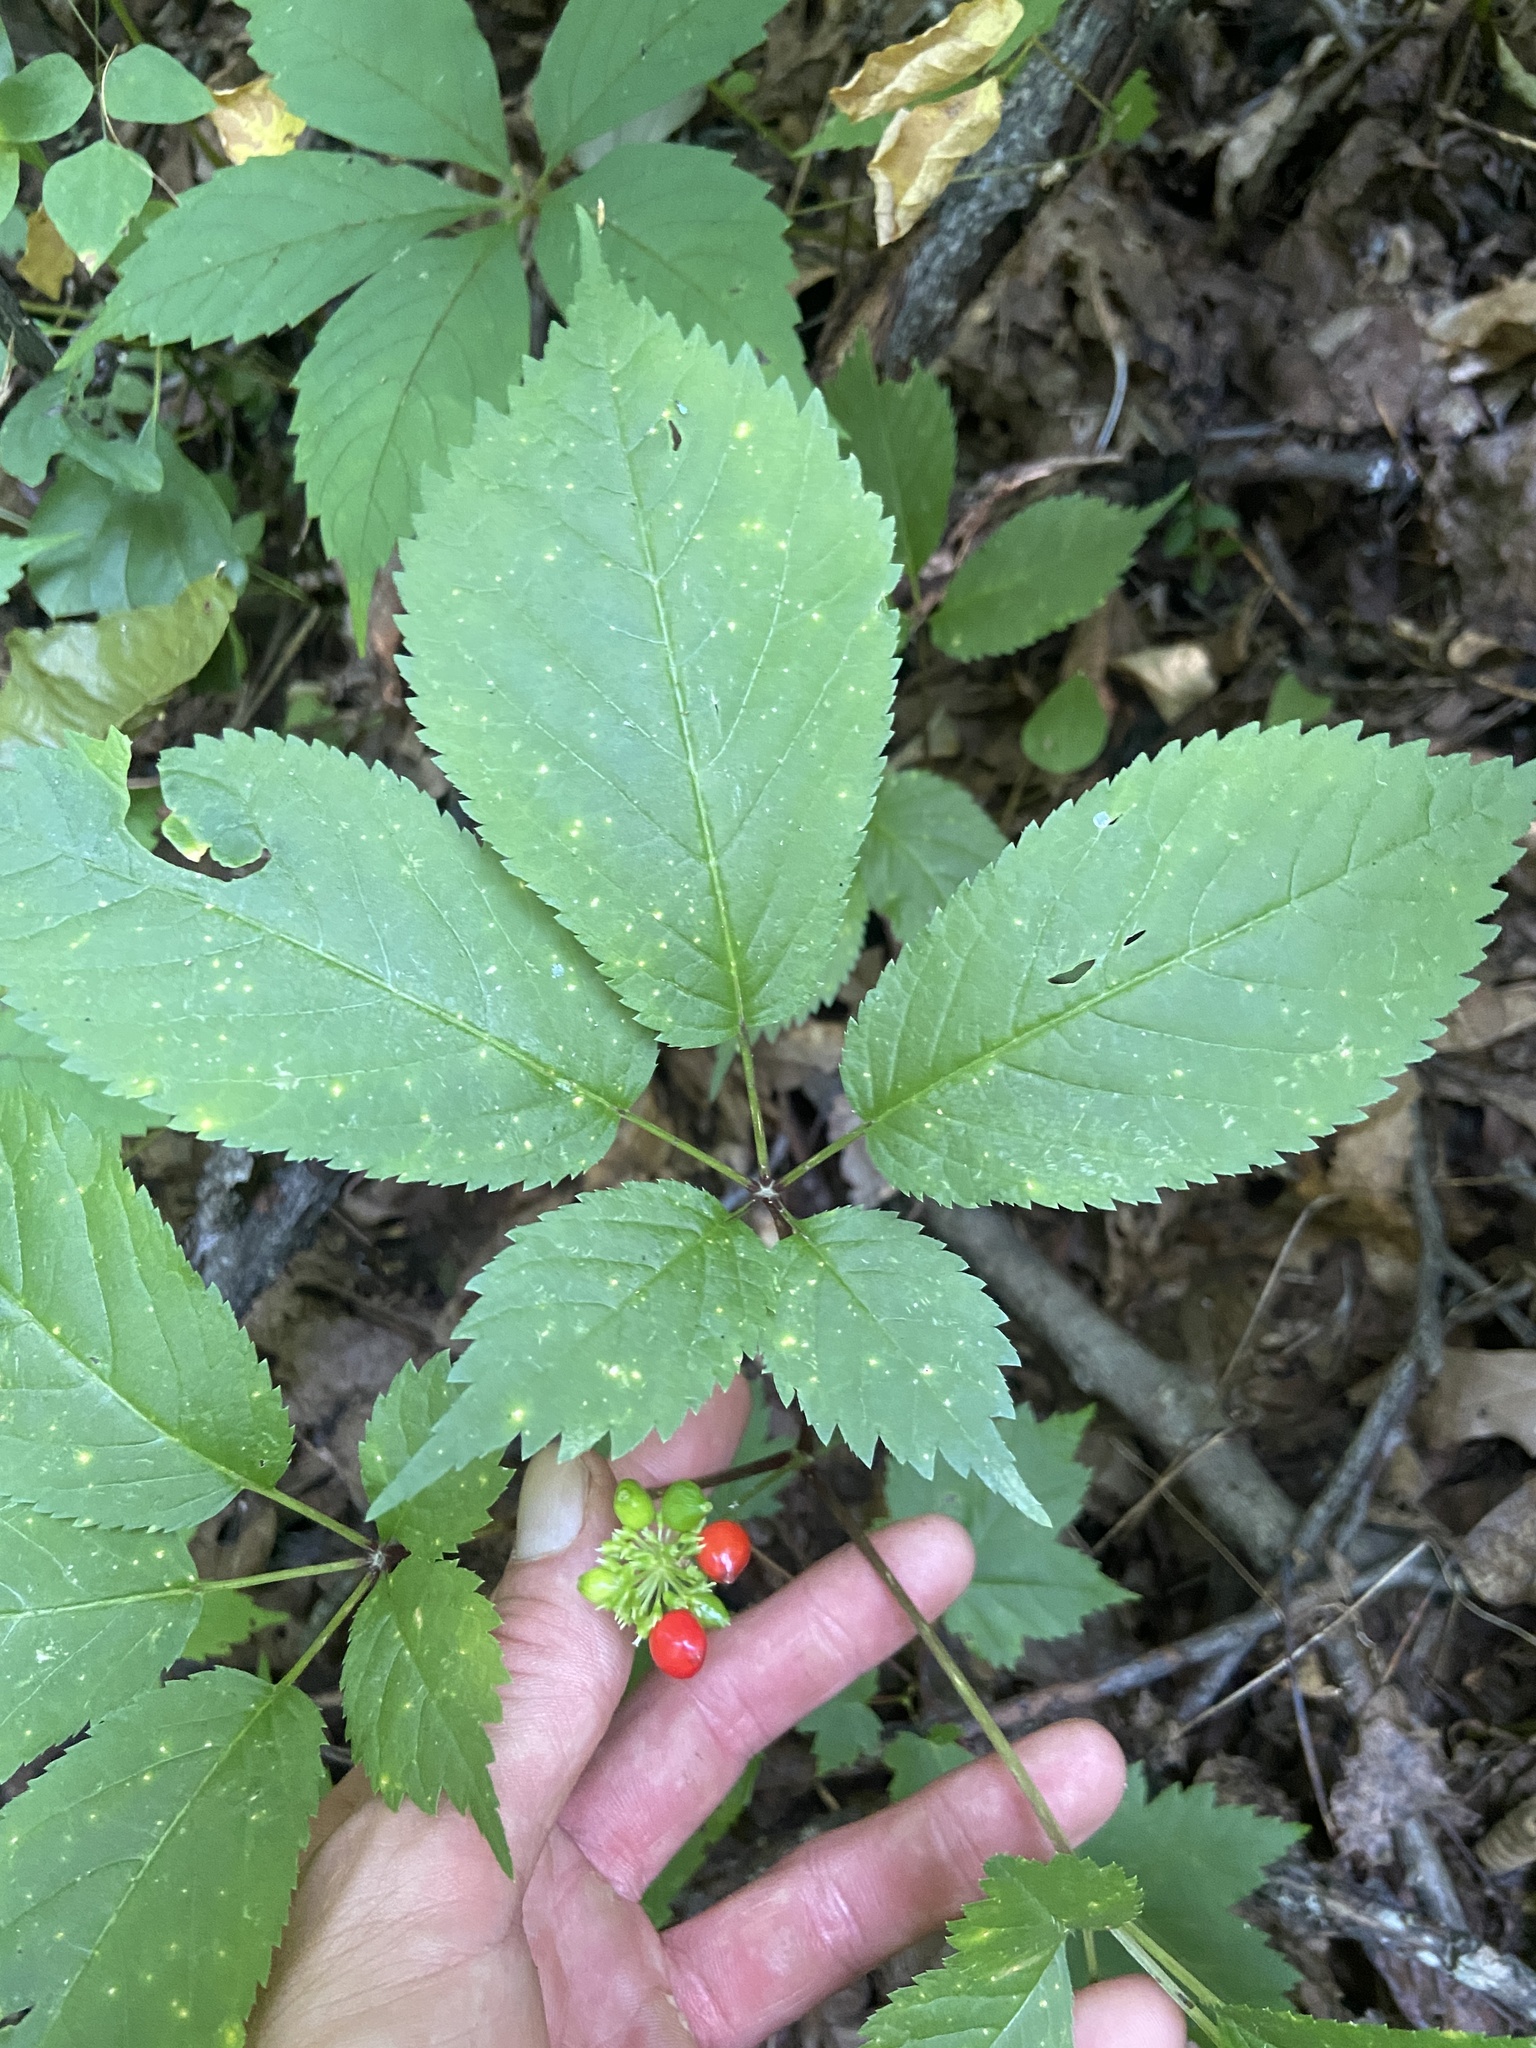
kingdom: Plantae
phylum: Tracheophyta
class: Magnoliopsida
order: Apiales
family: Araliaceae
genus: Panax
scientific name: Panax quinquefolius
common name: American ginseng
